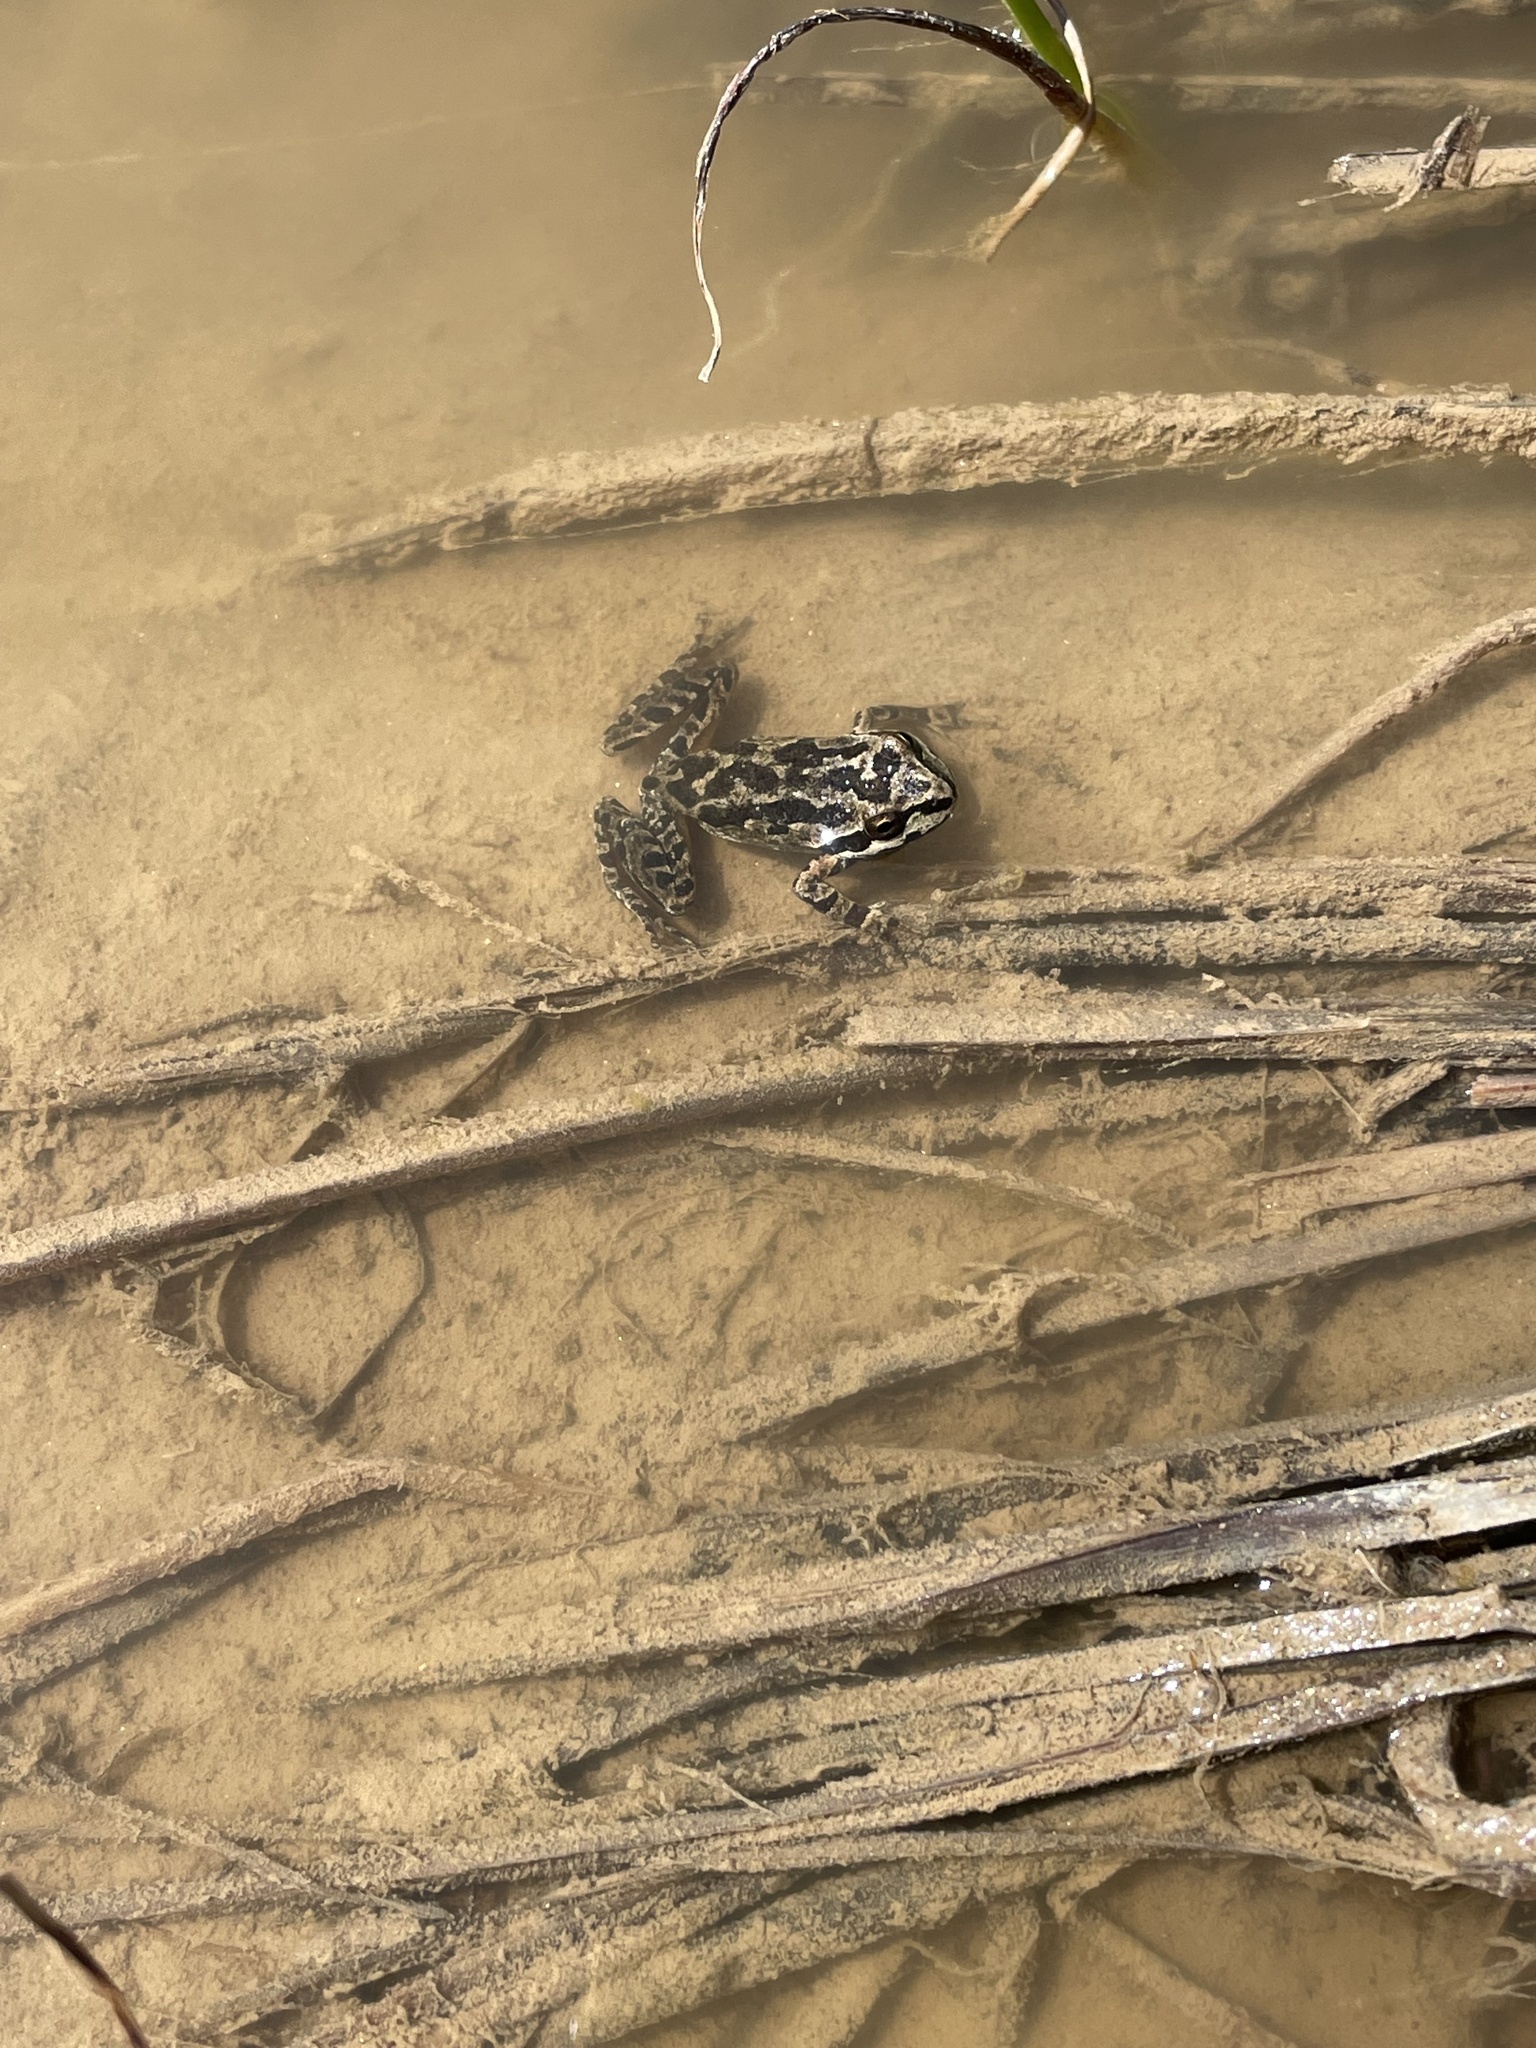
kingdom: Animalia
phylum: Chordata
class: Amphibia
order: Anura
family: Hylidae
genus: Pseudacris
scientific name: Pseudacris regilla
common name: Pacific chorus frog
